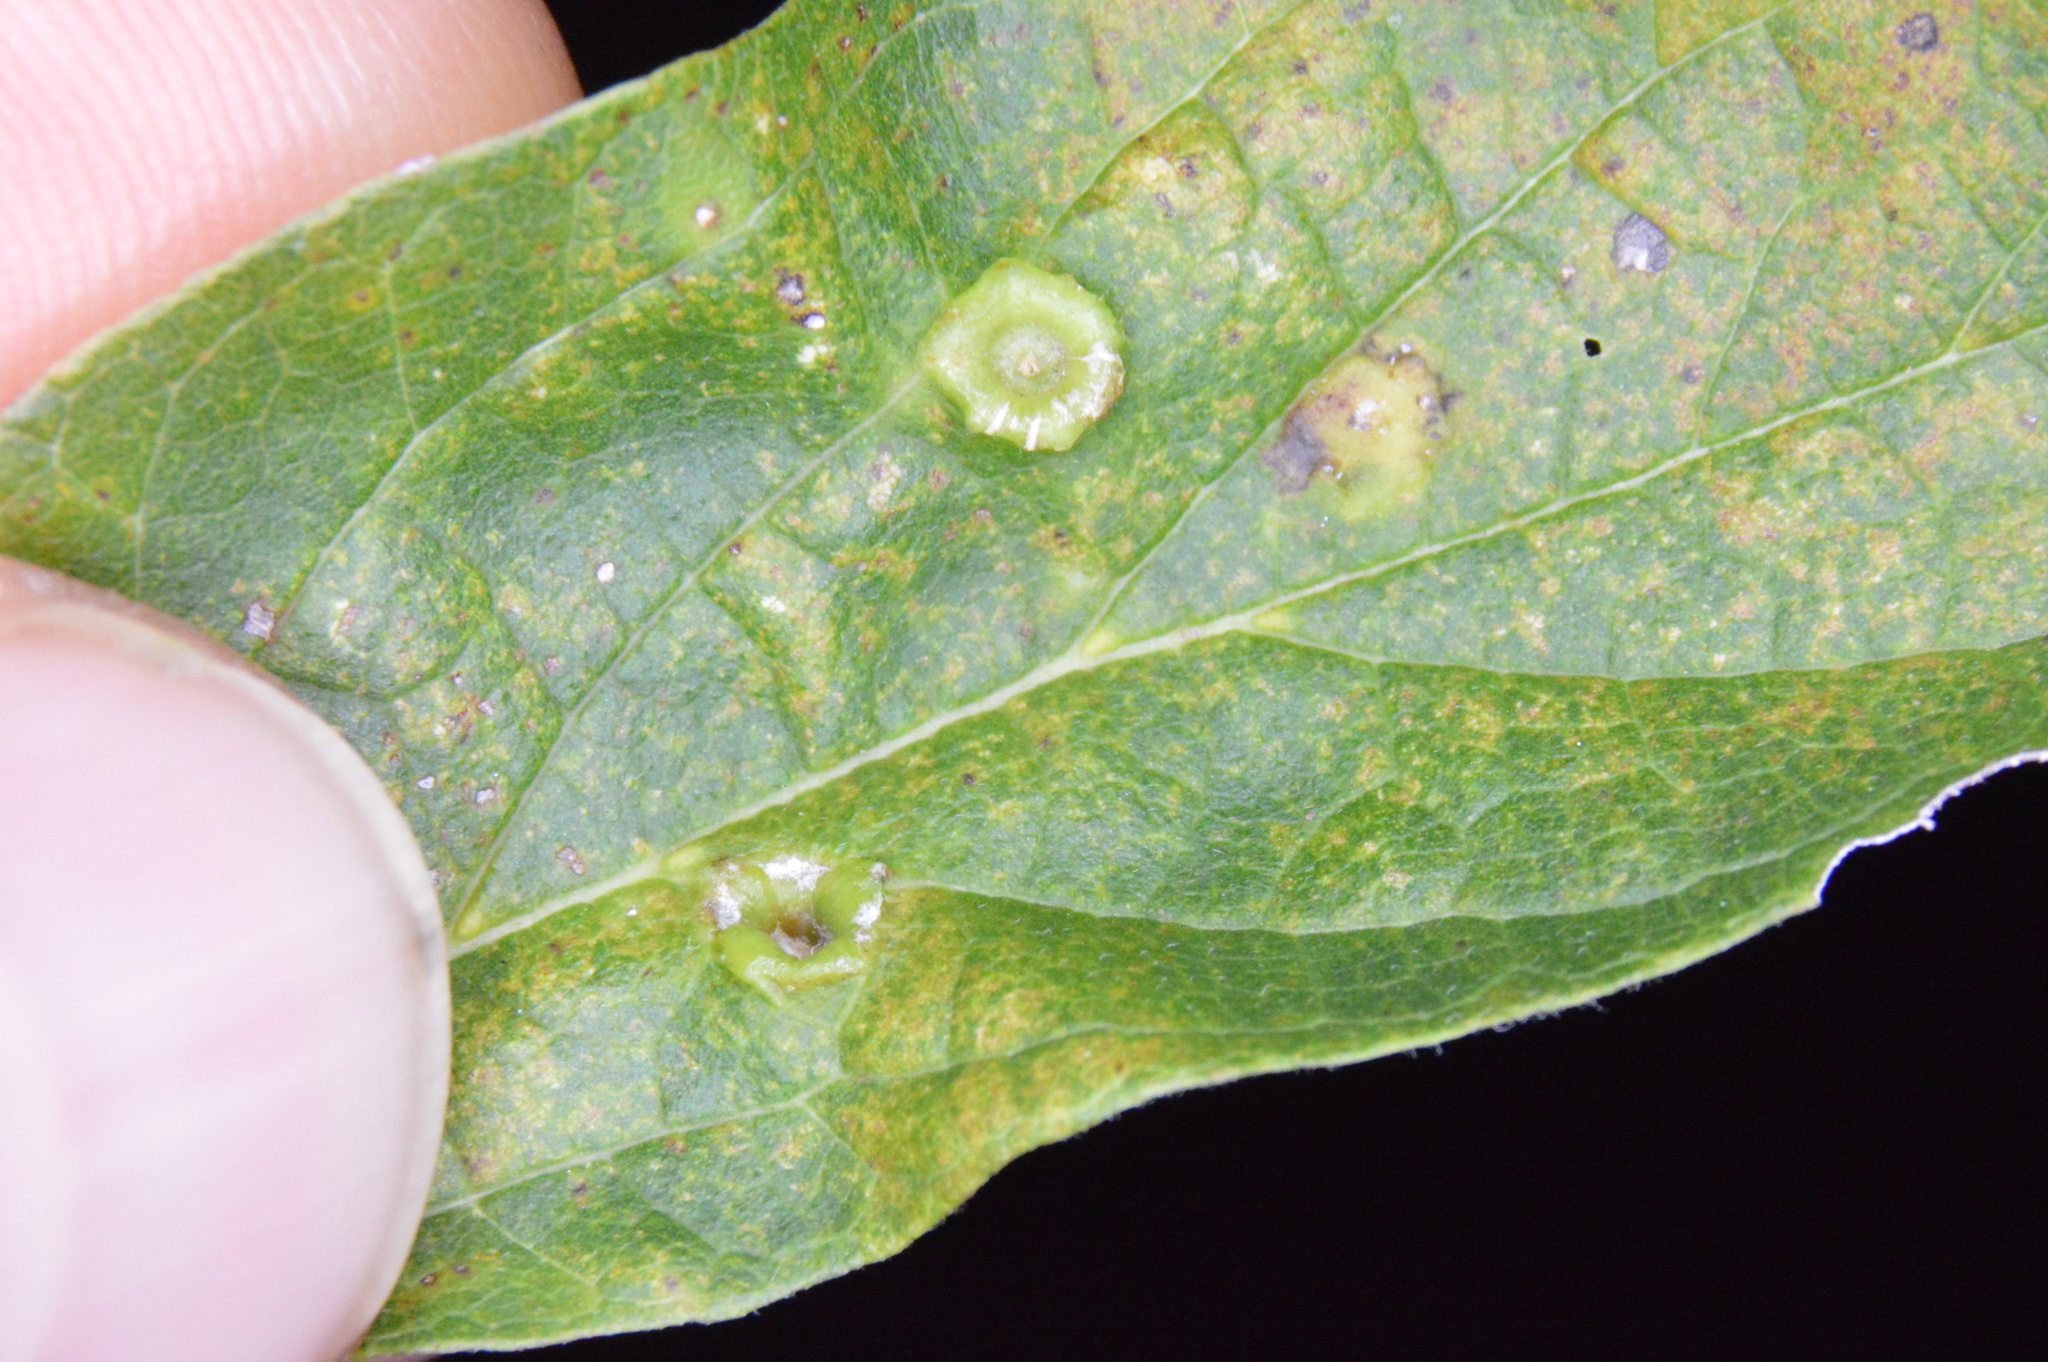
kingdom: Animalia
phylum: Arthropoda
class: Insecta
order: Hemiptera
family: Aphalaridae
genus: Pachypsylla
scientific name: Pachypsylla celtidismamma
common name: Hackberry nipplegall psyllid
